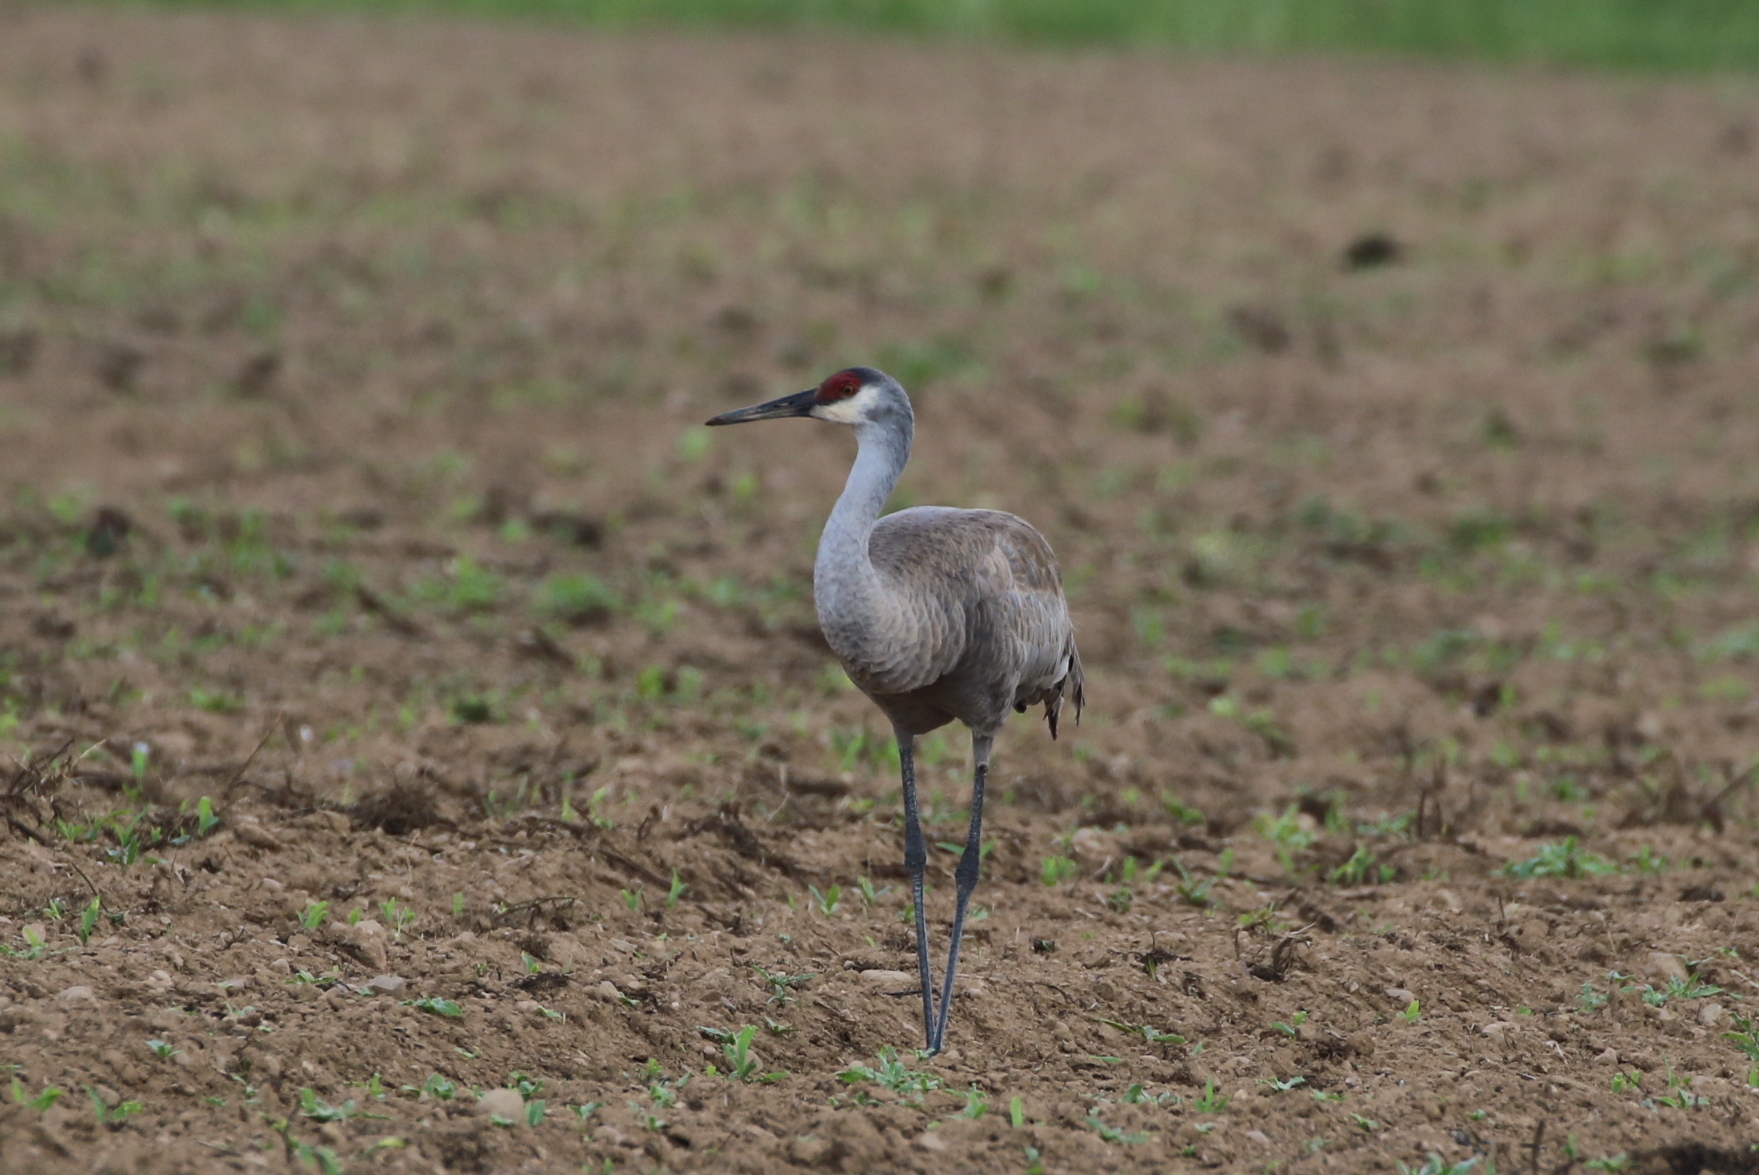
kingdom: Animalia
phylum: Chordata
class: Aves
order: Gruiformes
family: Gruidae
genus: Grus
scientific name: Grus canadensis
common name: Sandhill crane
